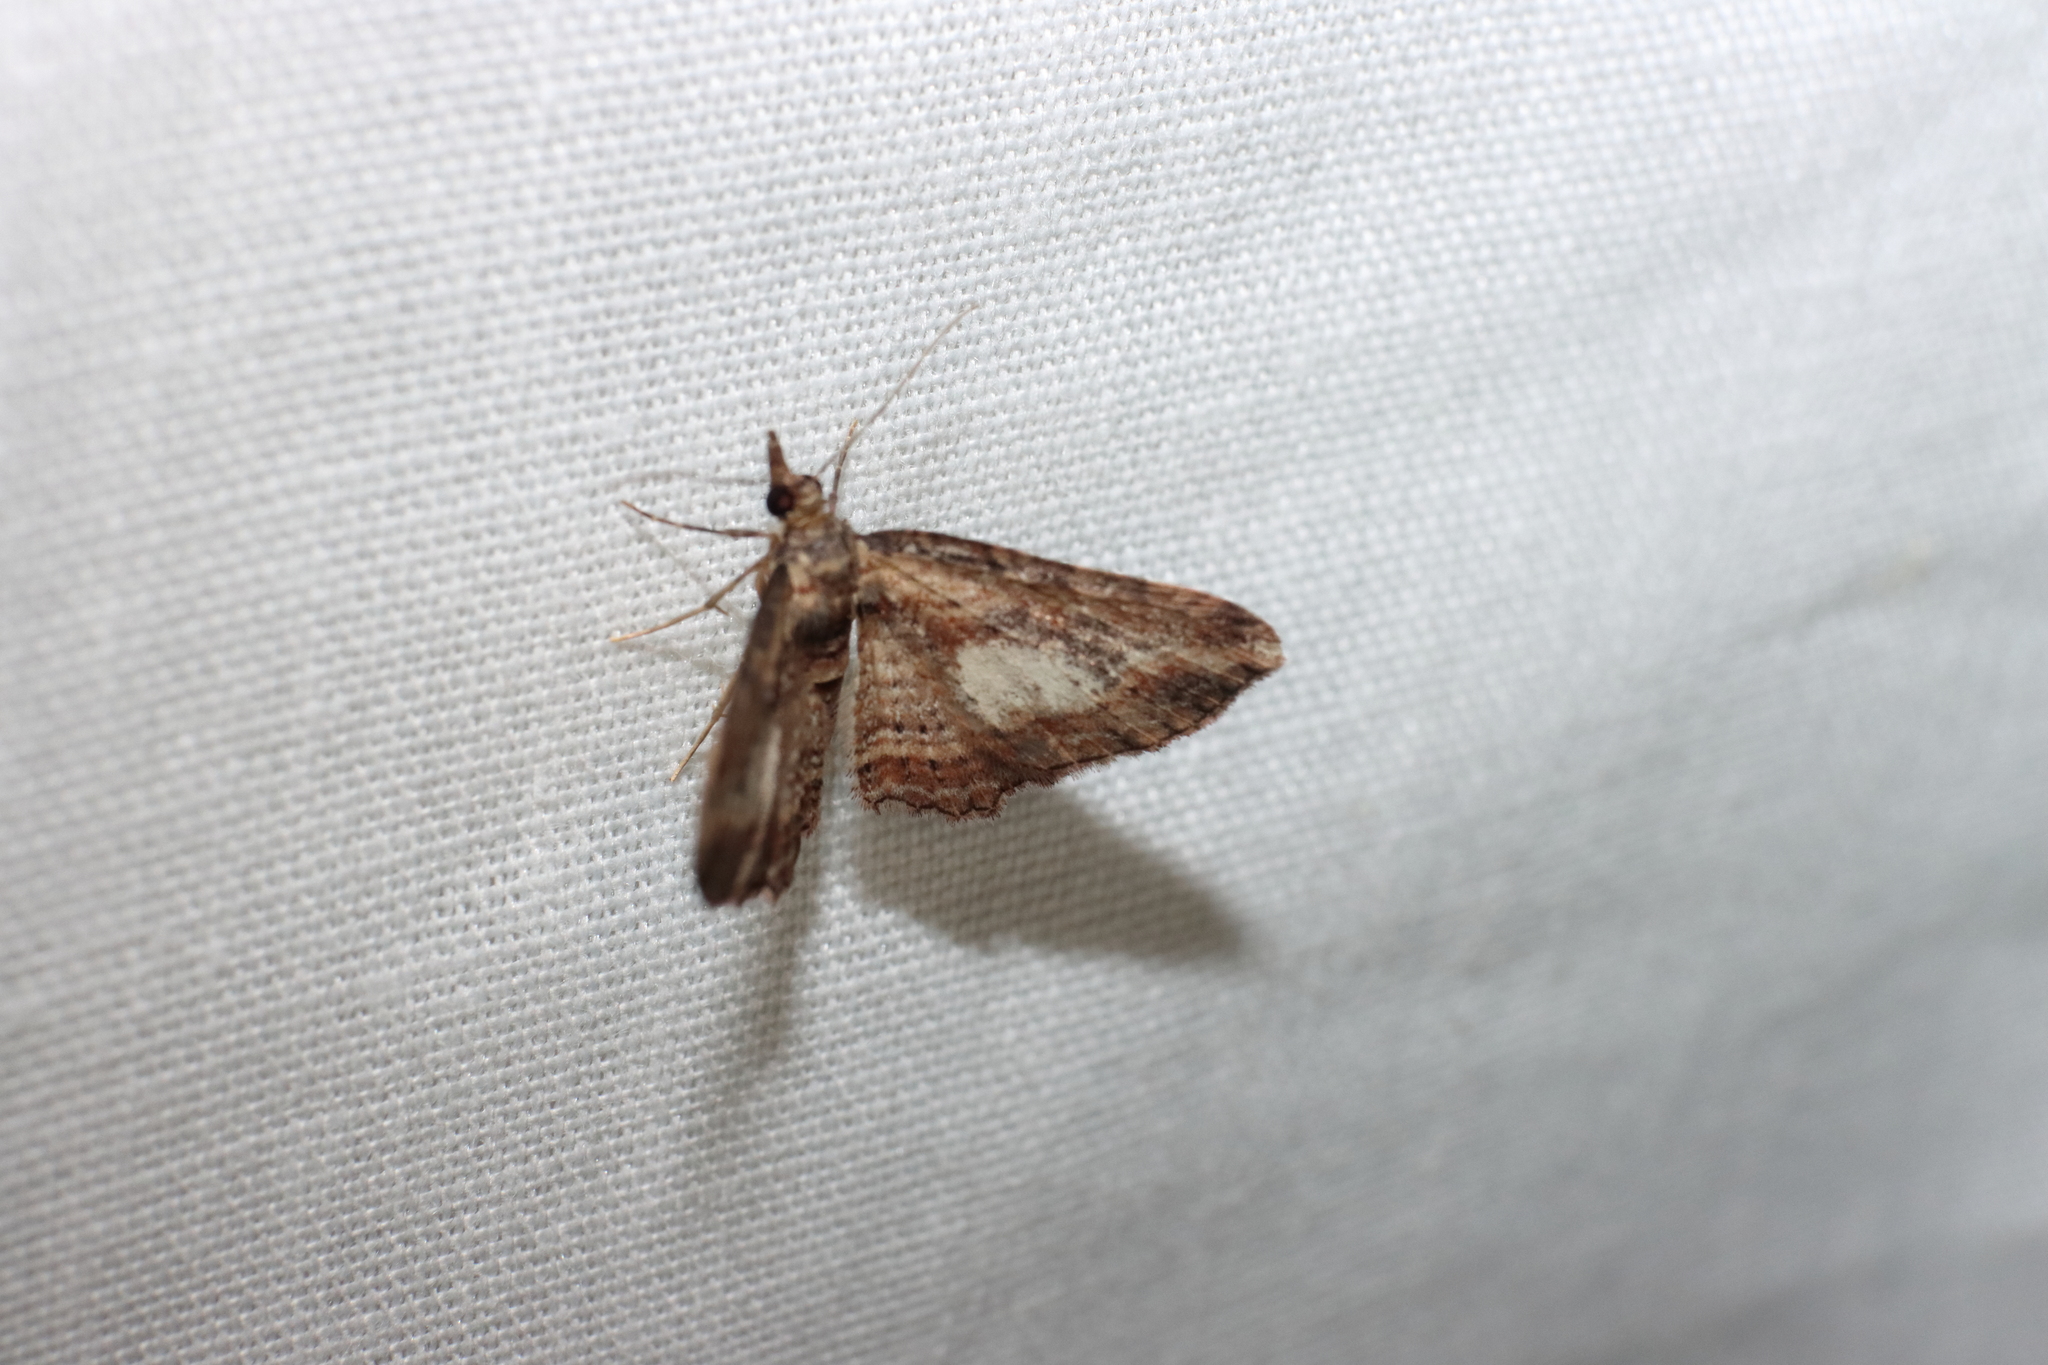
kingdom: Animalia
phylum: Arthropoda
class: Insecta
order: Lepidoptera
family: Geometridae
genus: Chloroclystis
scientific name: Chloroclystis filata
